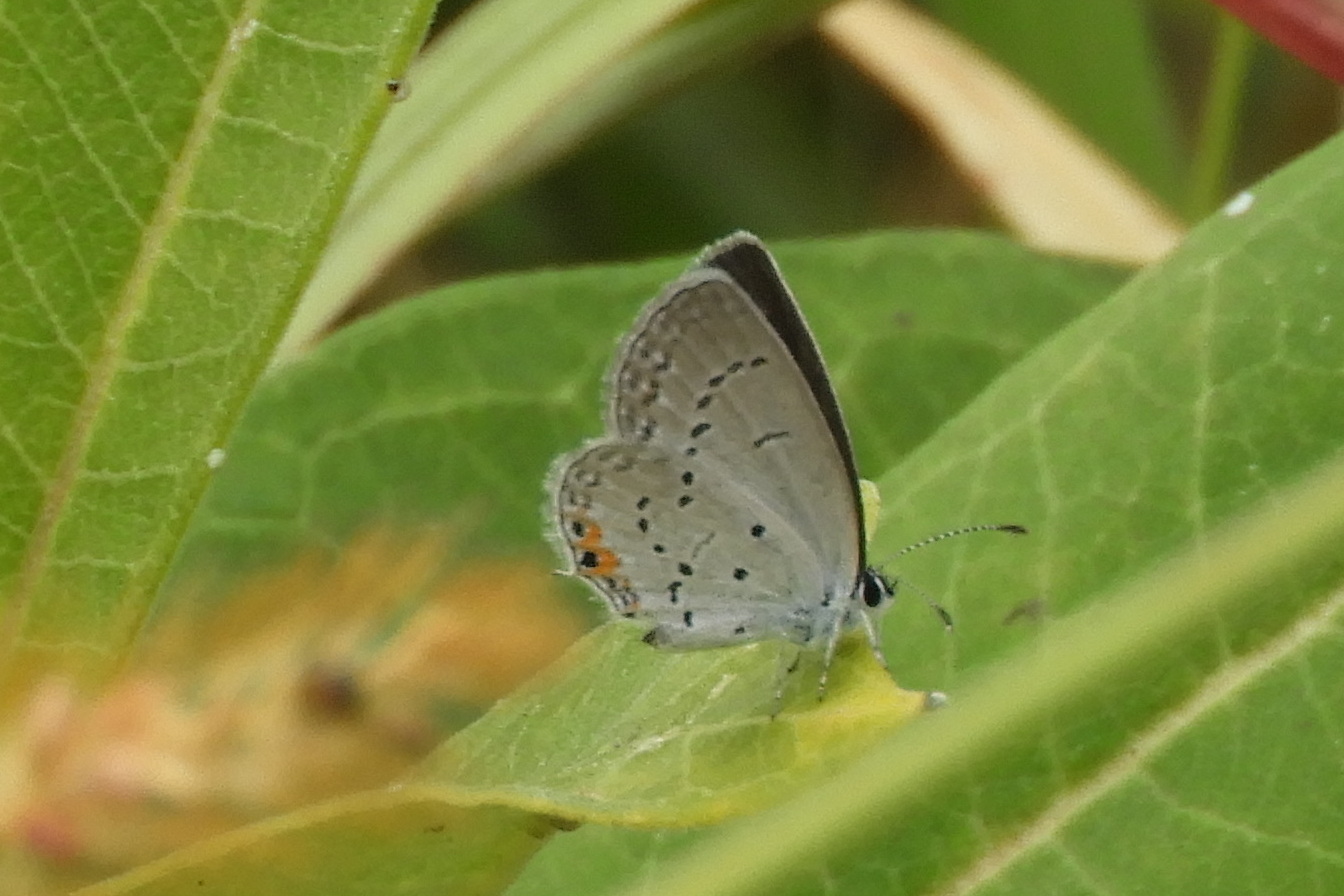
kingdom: Animalia
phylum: Arthropoda
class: Insecta
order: Lepidoptera
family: Lycaenidae
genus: Elkalyce
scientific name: Elkalyce comyntas
